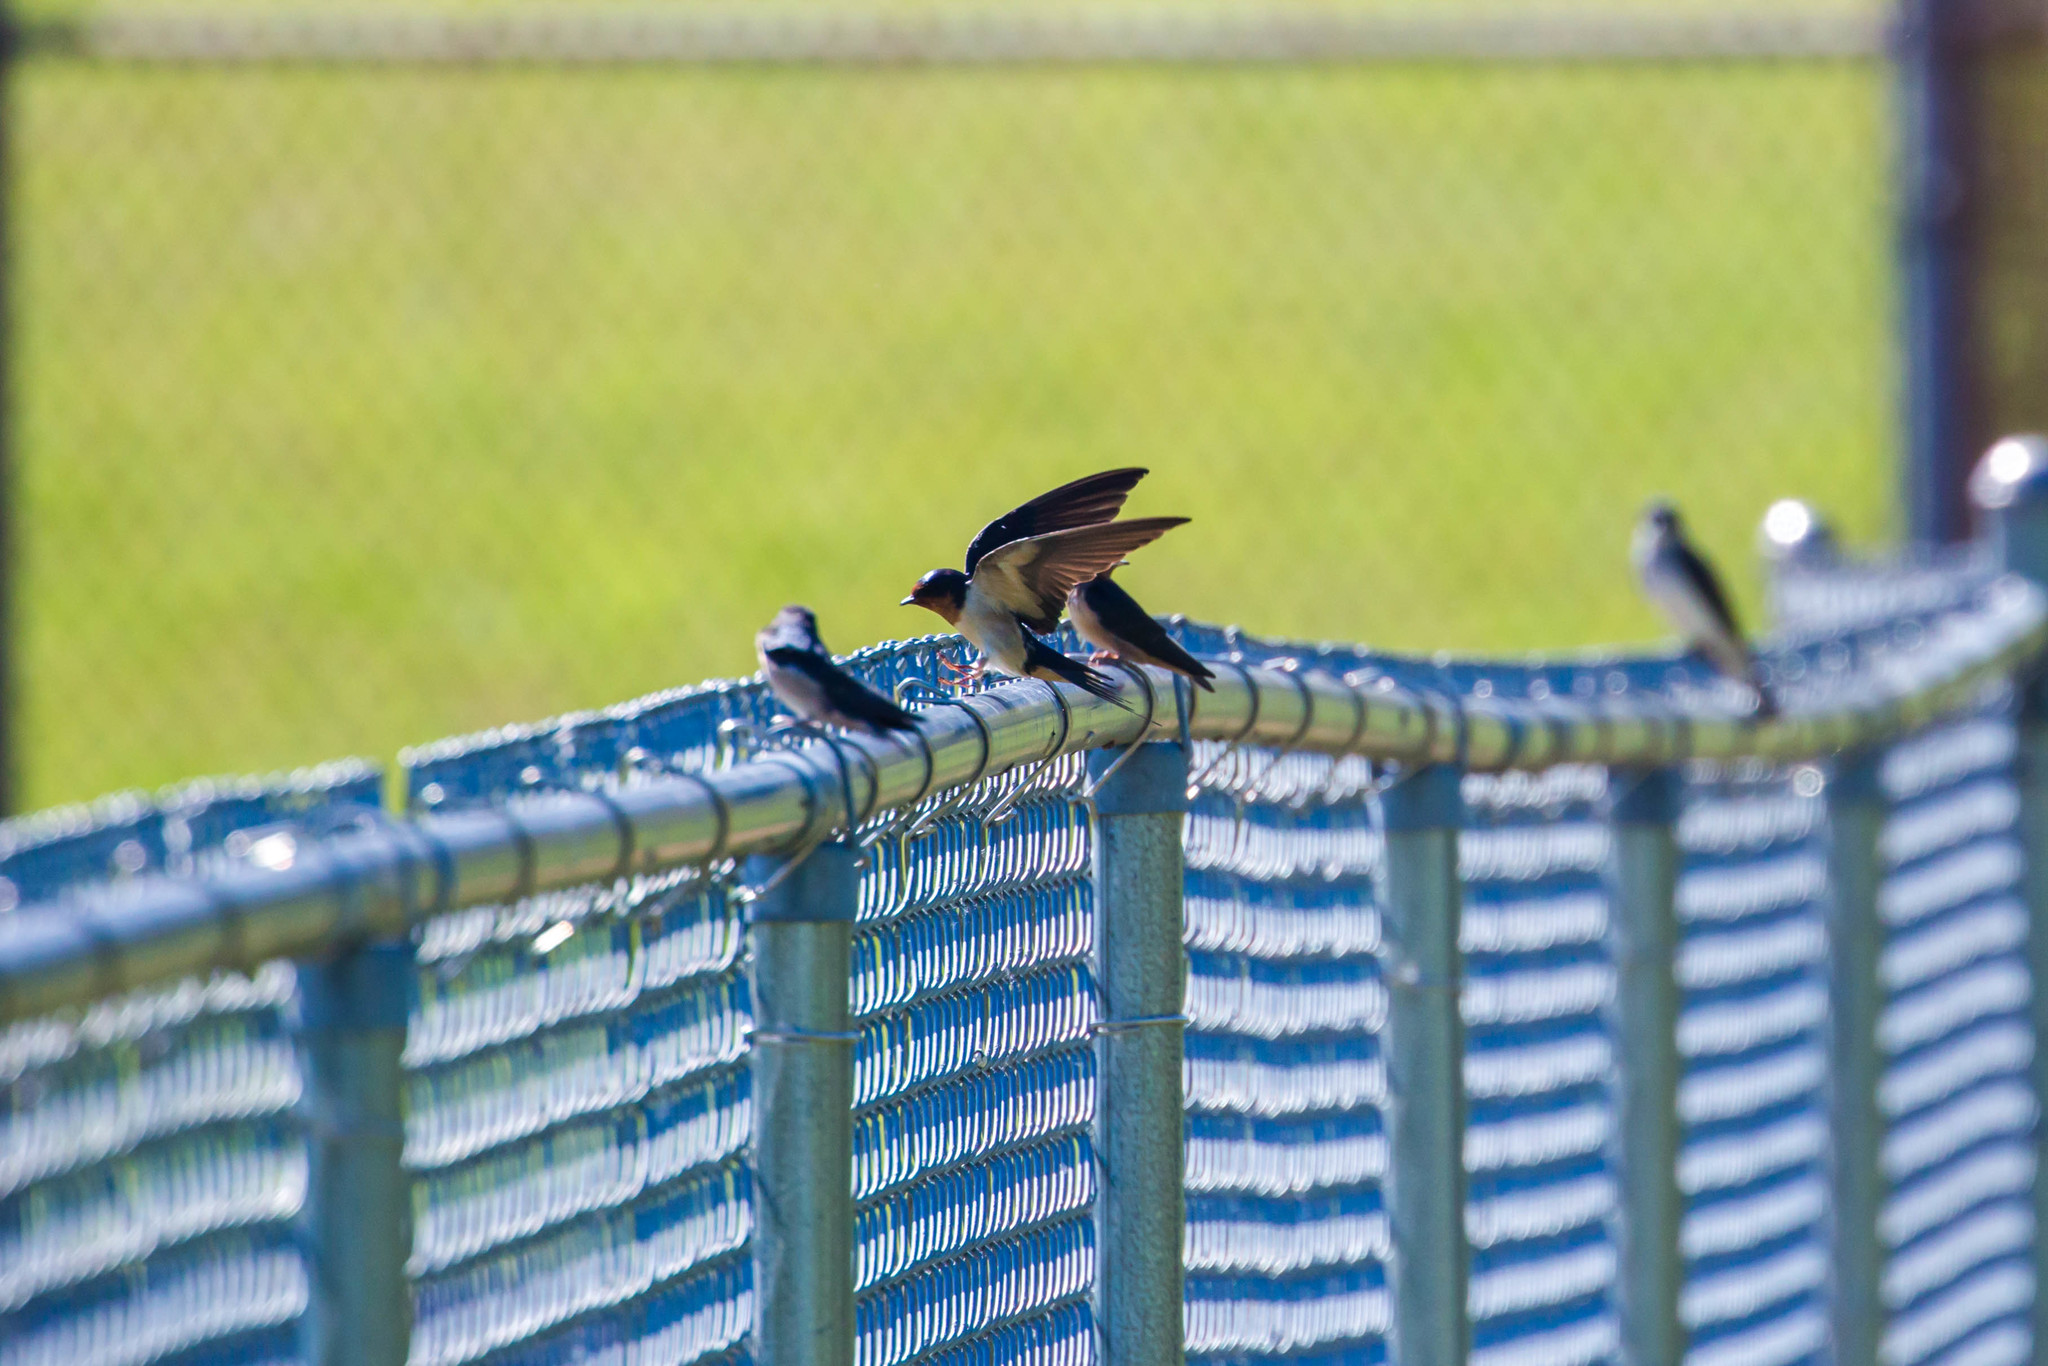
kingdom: Animalia
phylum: Chordata
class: Aves
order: Passeriformes
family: Hirundinidae
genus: Hirundo
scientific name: Hirundo rustica
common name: Barn swallow
